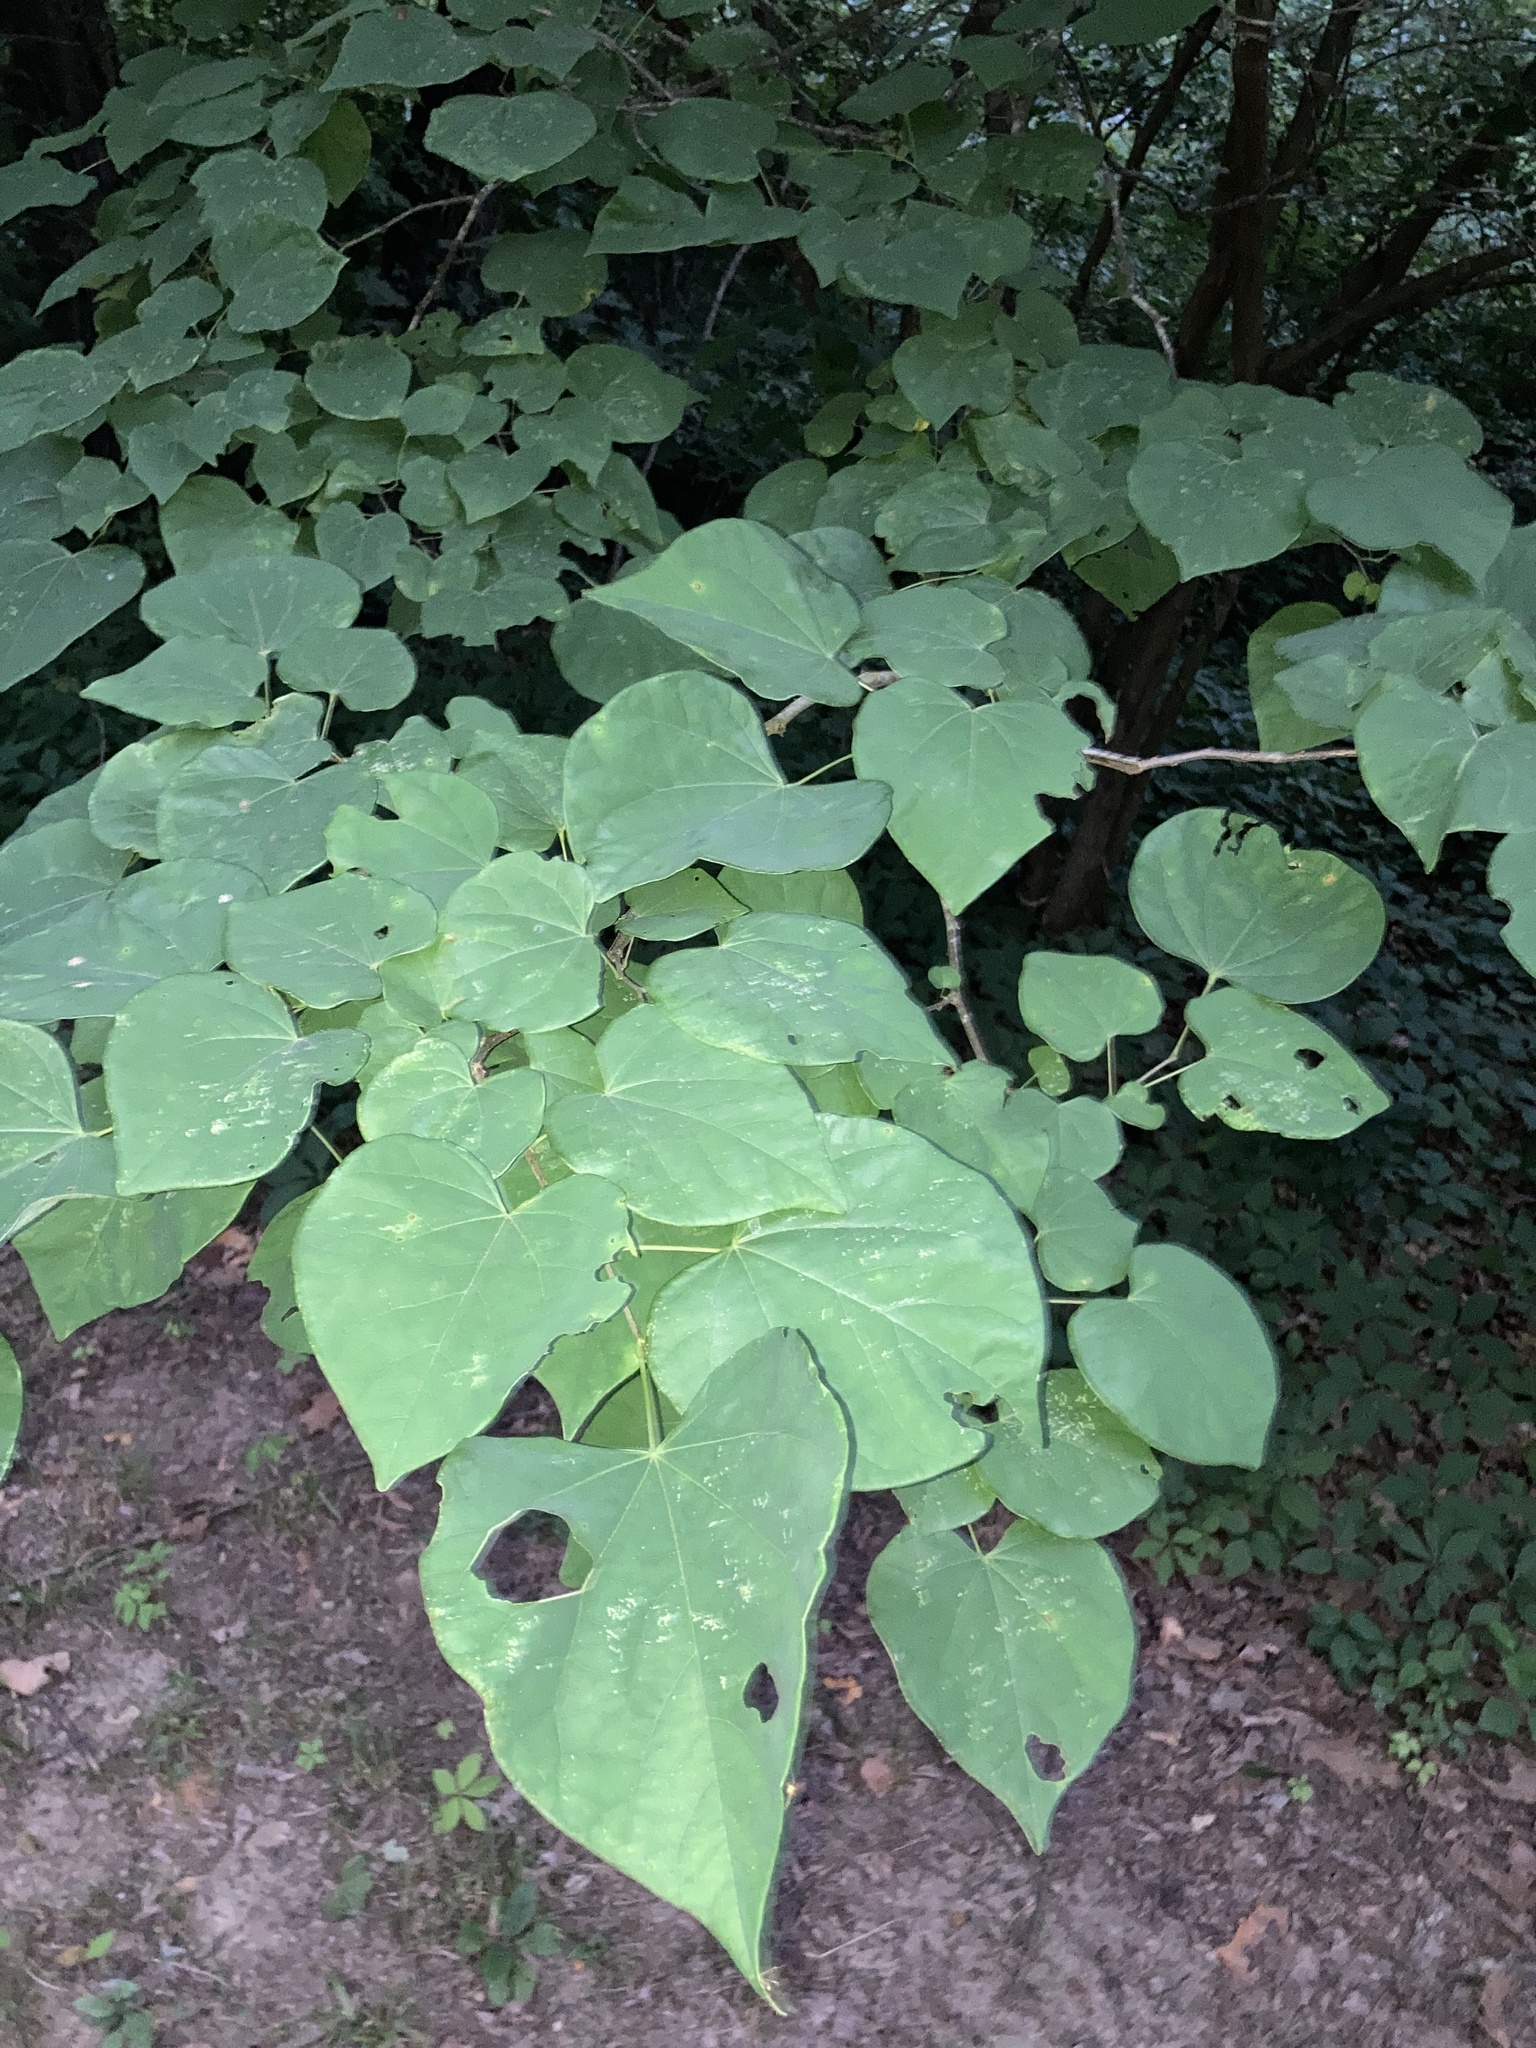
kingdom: Plantae
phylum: Tracheophyta
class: Magnoliopsida
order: Fabales
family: Fabaceae
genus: Cercis
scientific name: Cercis canadensis
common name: Eastern redbud
